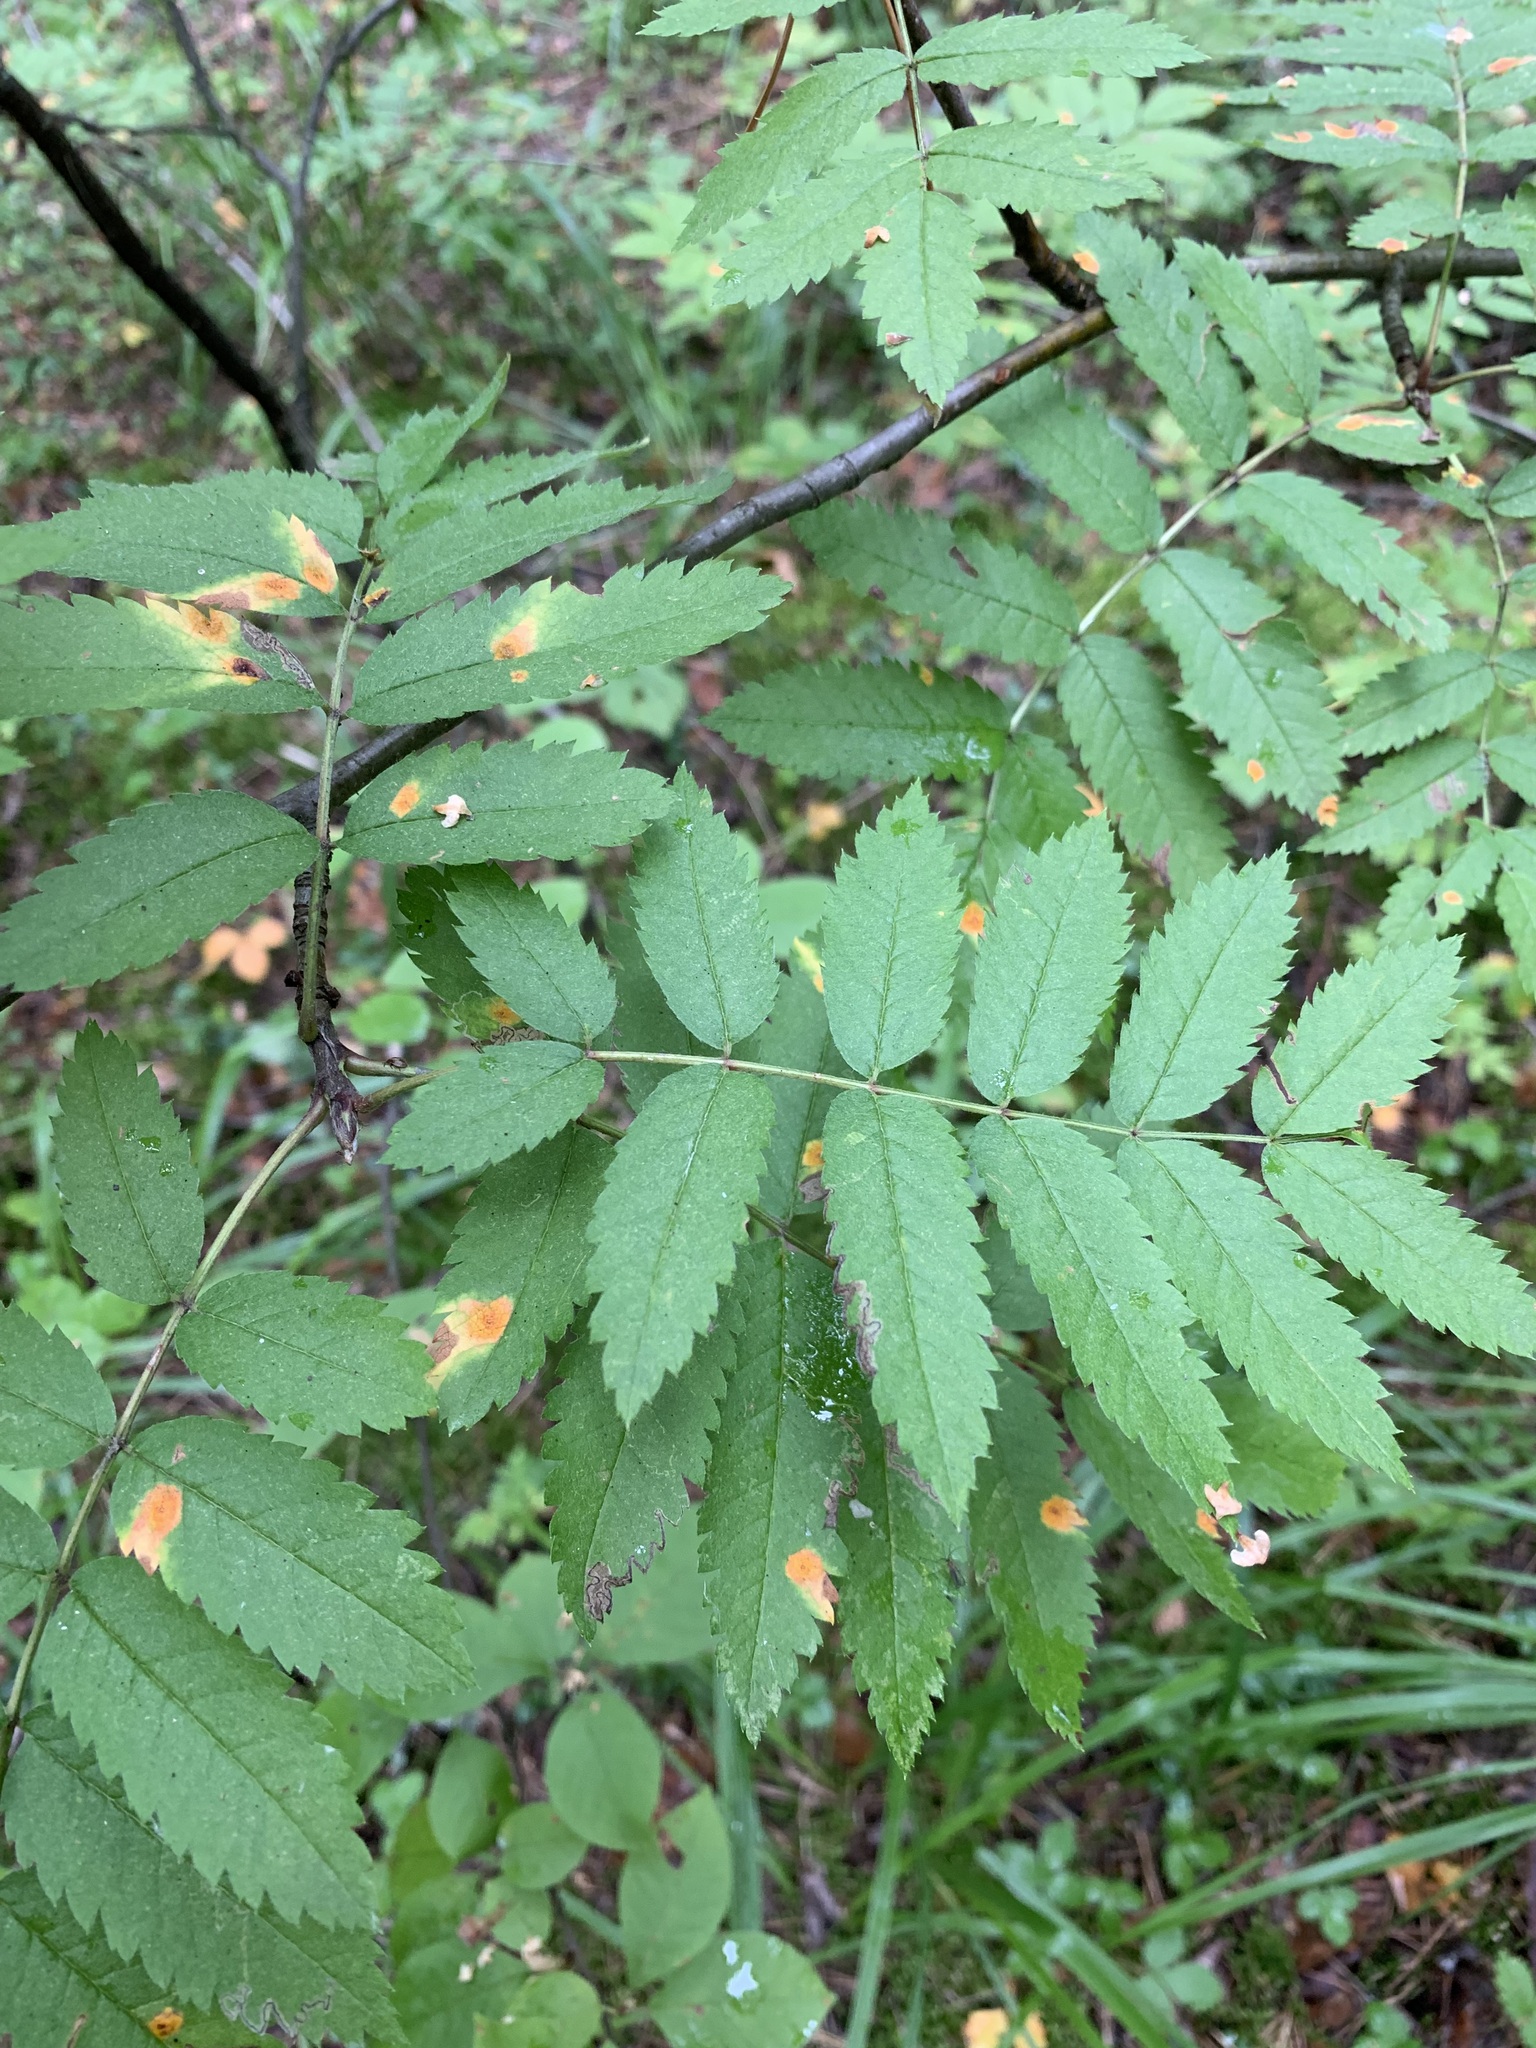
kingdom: Plantae
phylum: Tracheophyta
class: Magnoliopsida
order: Rosales
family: Rosaceae
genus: Sorbus
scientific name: Sorbus aucuparia
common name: Rowan
